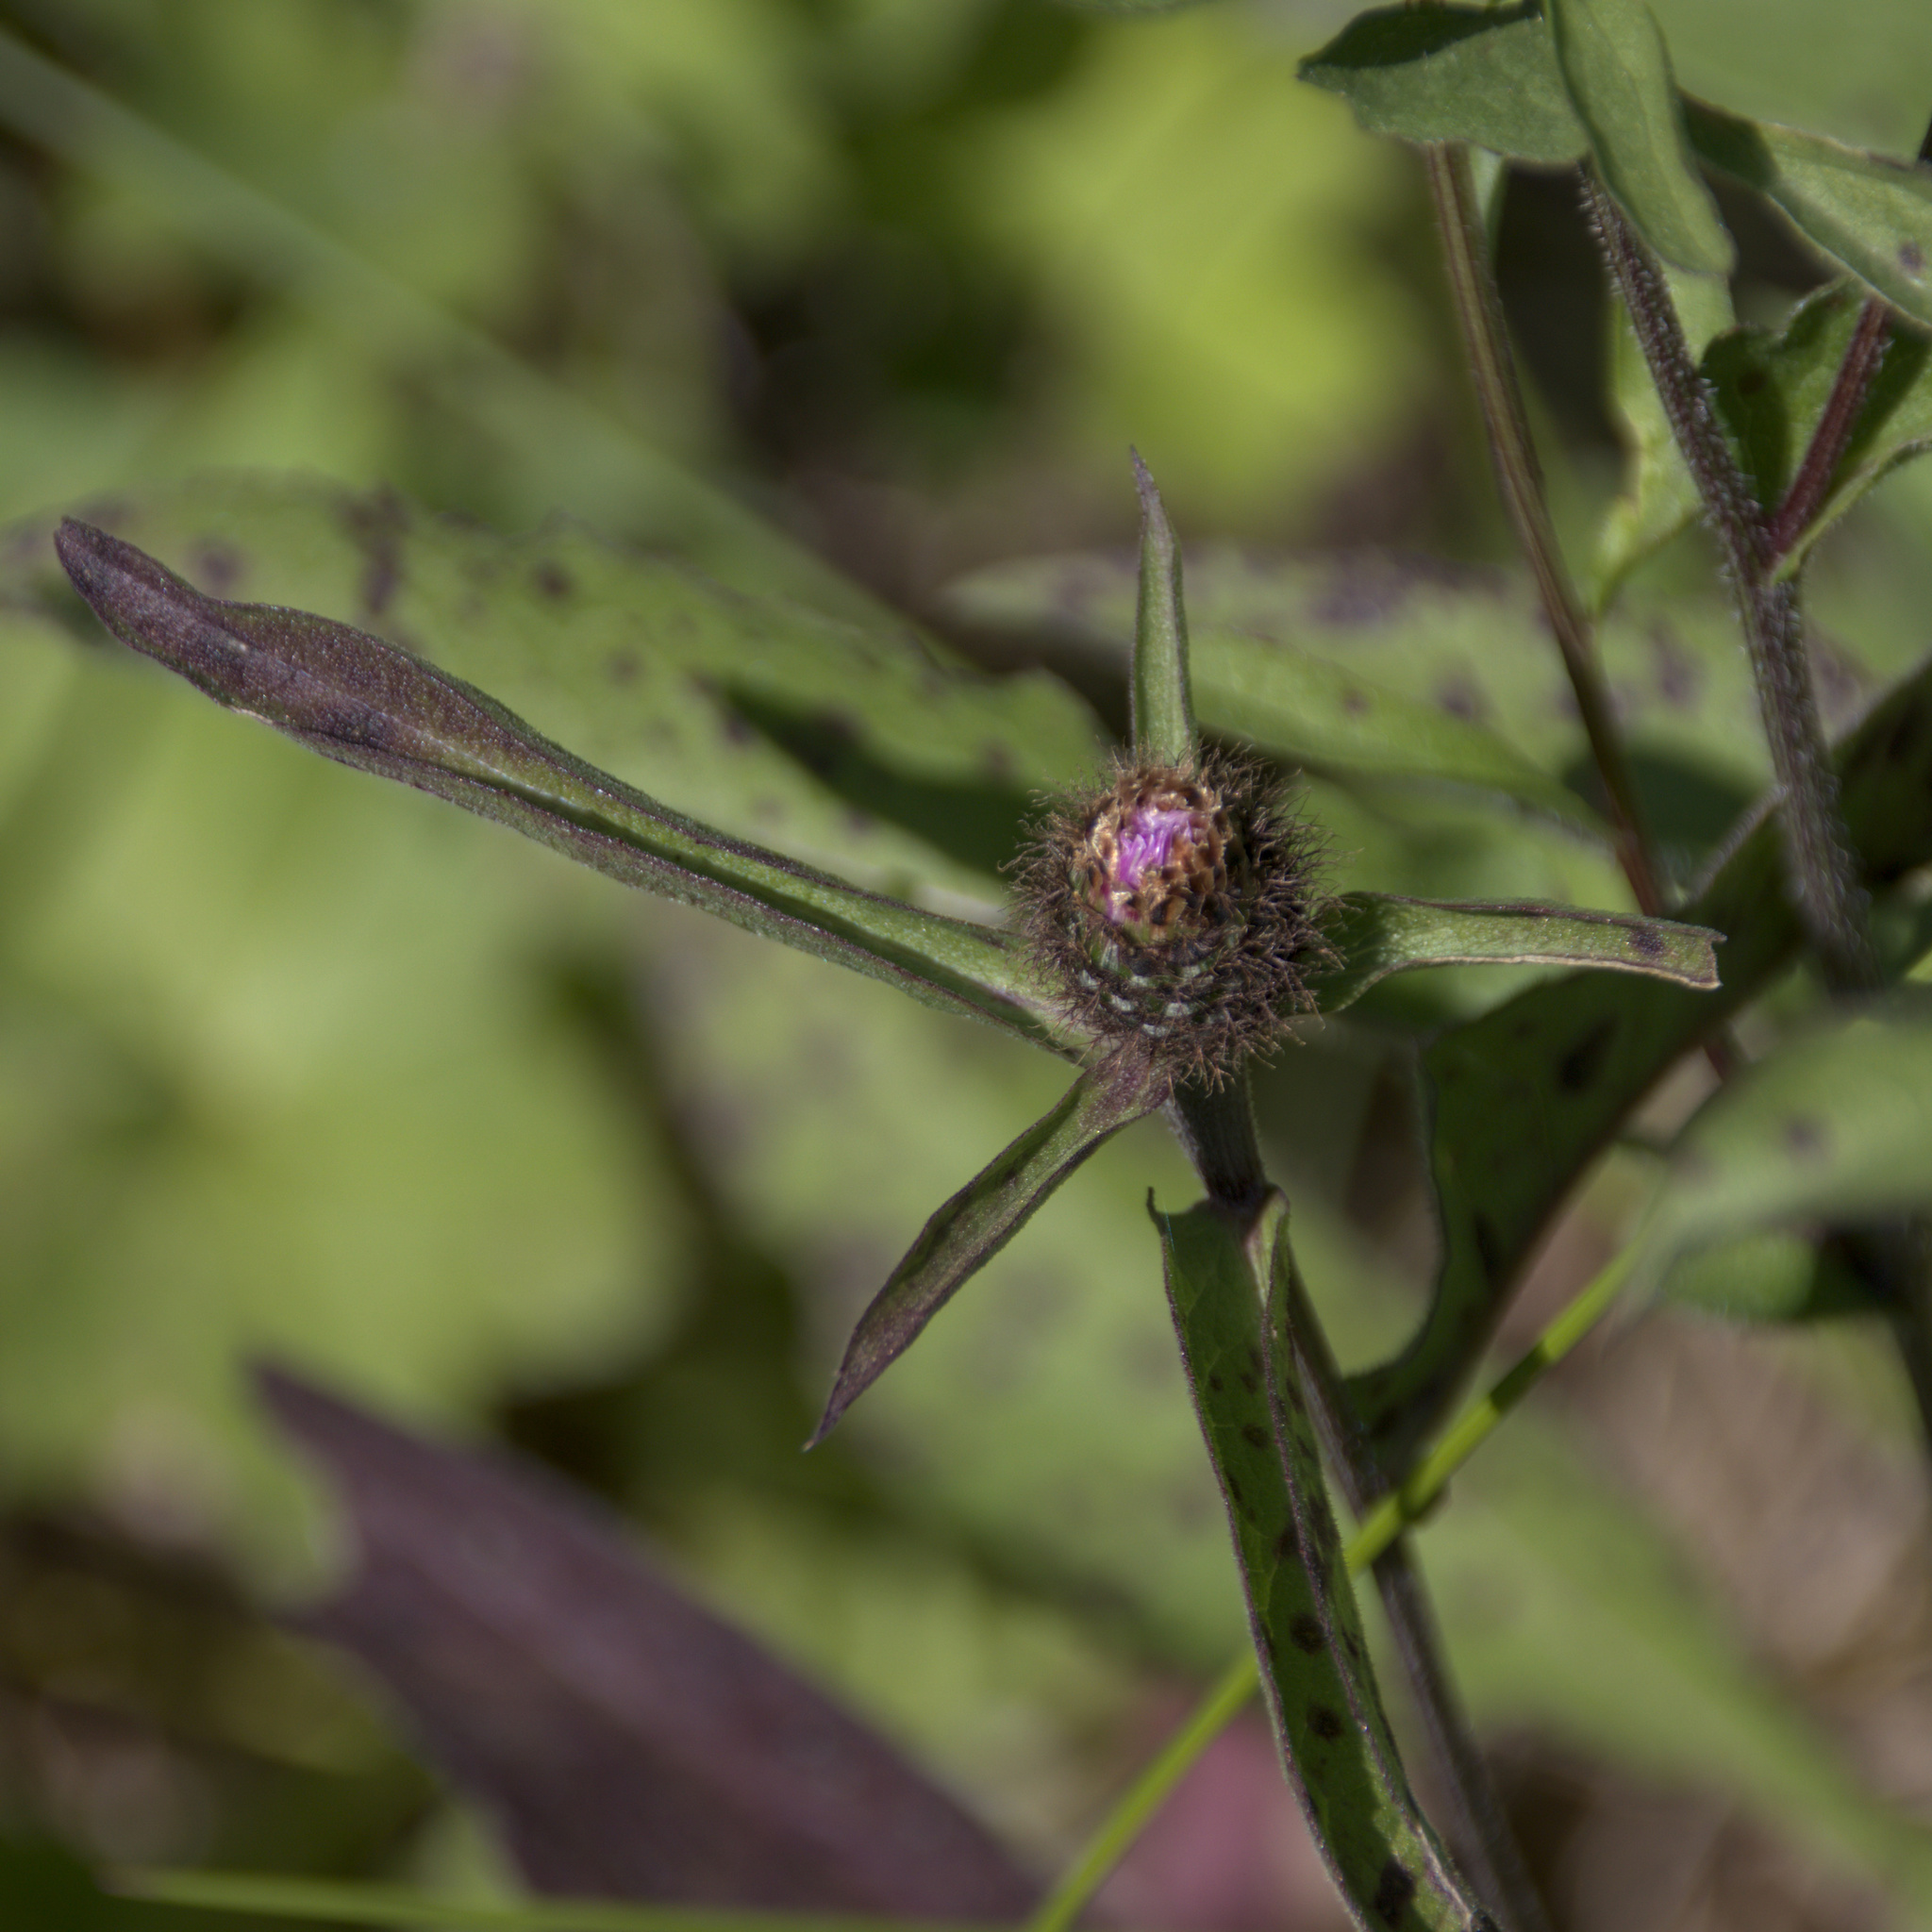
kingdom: Plantae
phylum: Tracheophyta
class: Magnoliopsida
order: Asterales
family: Asteraceae
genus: Centaurea
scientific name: Centaurea phrygia
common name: Wig knapweed
